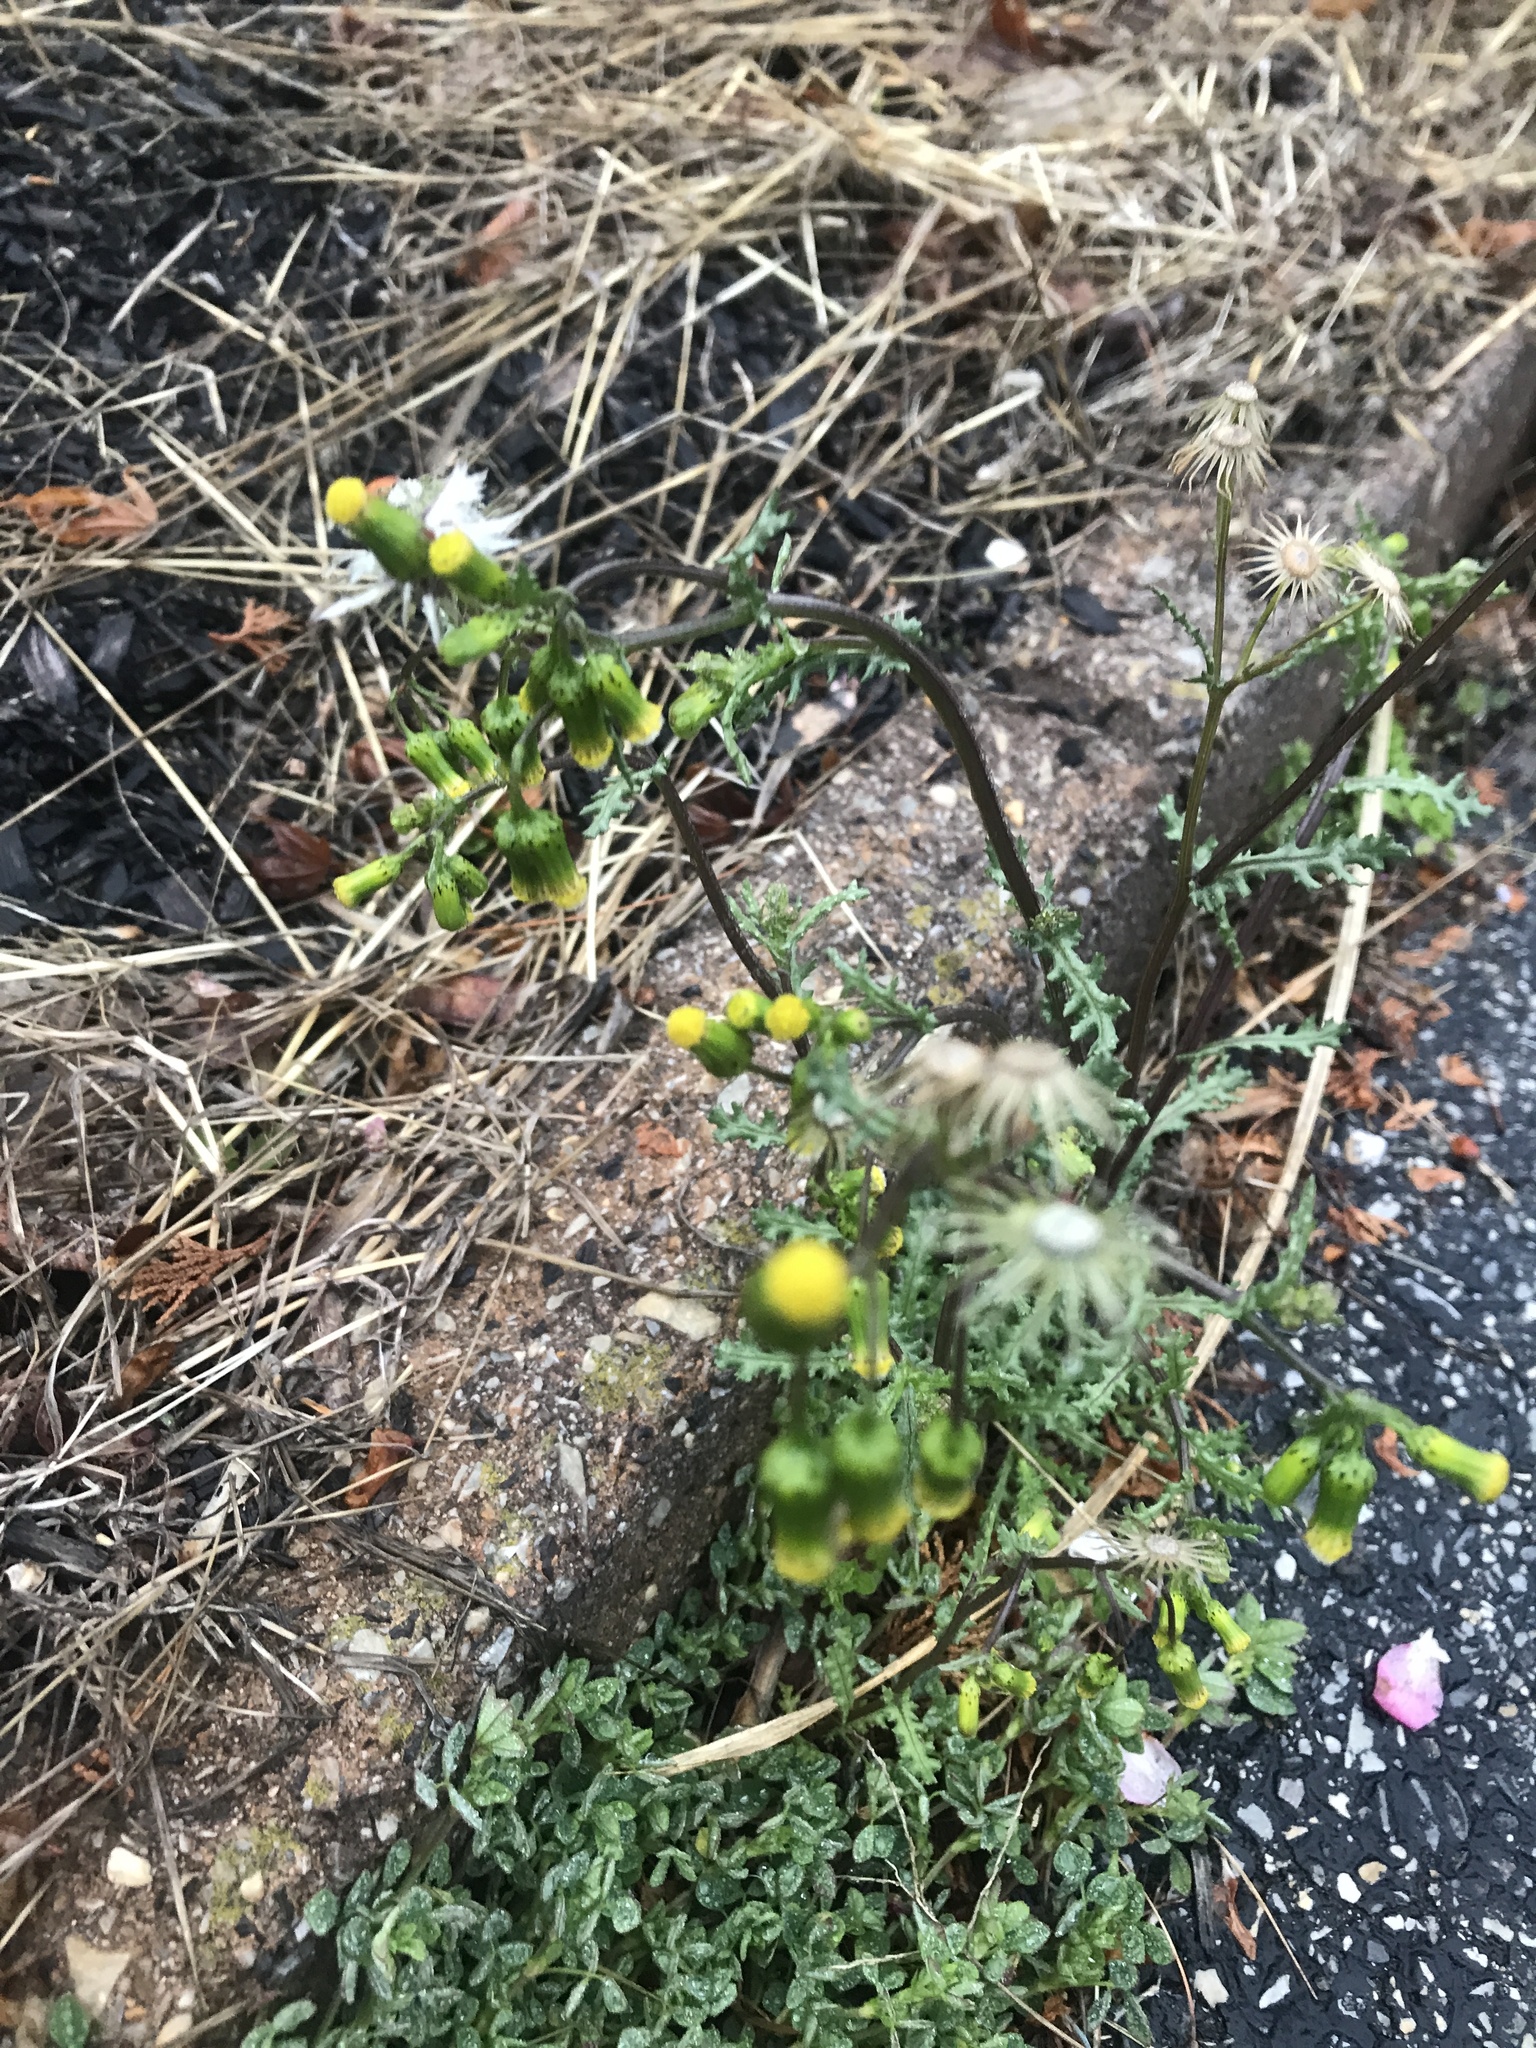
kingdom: Plantae
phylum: Tracheophyta
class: Magnoliopsida
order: Asterales
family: Asteraceae
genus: Senecio
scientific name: Senecio vulgaris
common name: Old-man-in-the-spring
